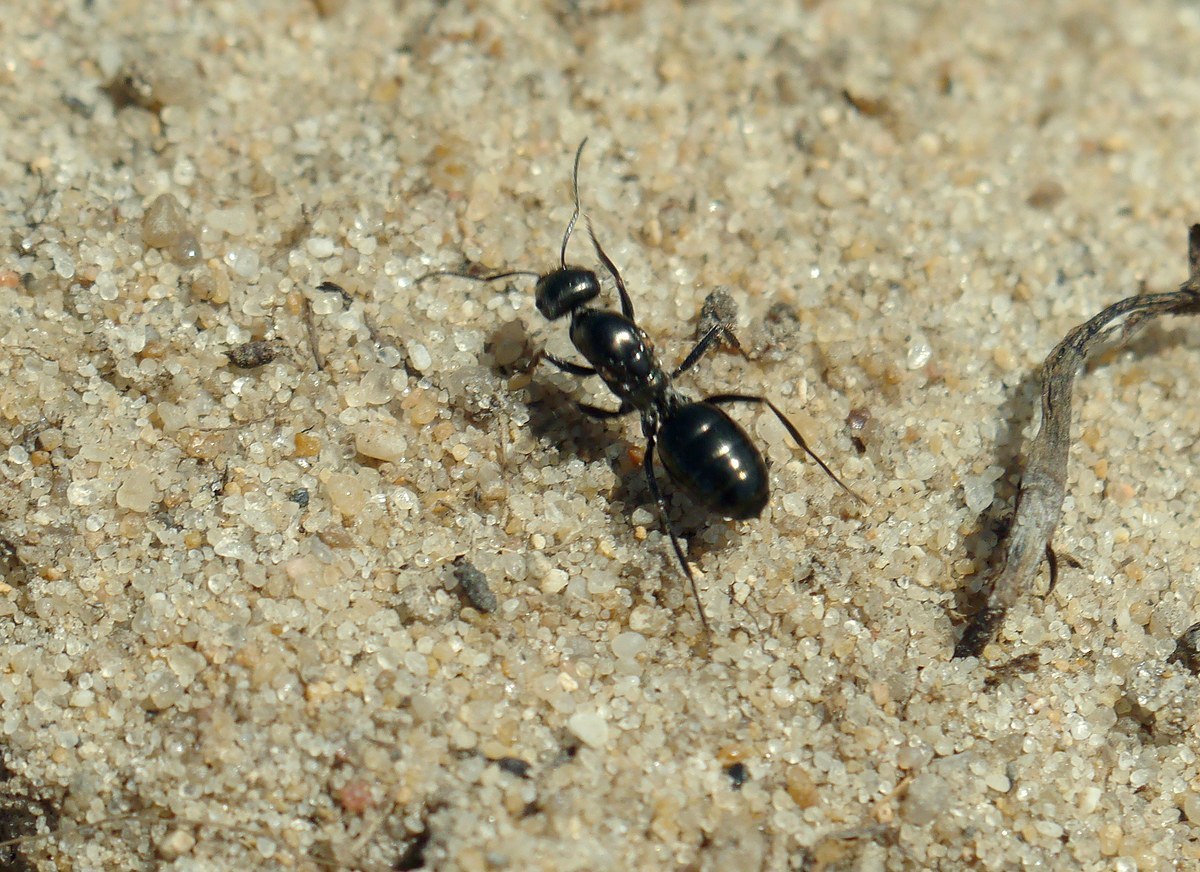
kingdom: Animalia
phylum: Arthropoda
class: Insecta
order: Hymenoptera
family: Formicidae
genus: Cataglyphis
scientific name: Cataglyphis aenescens
